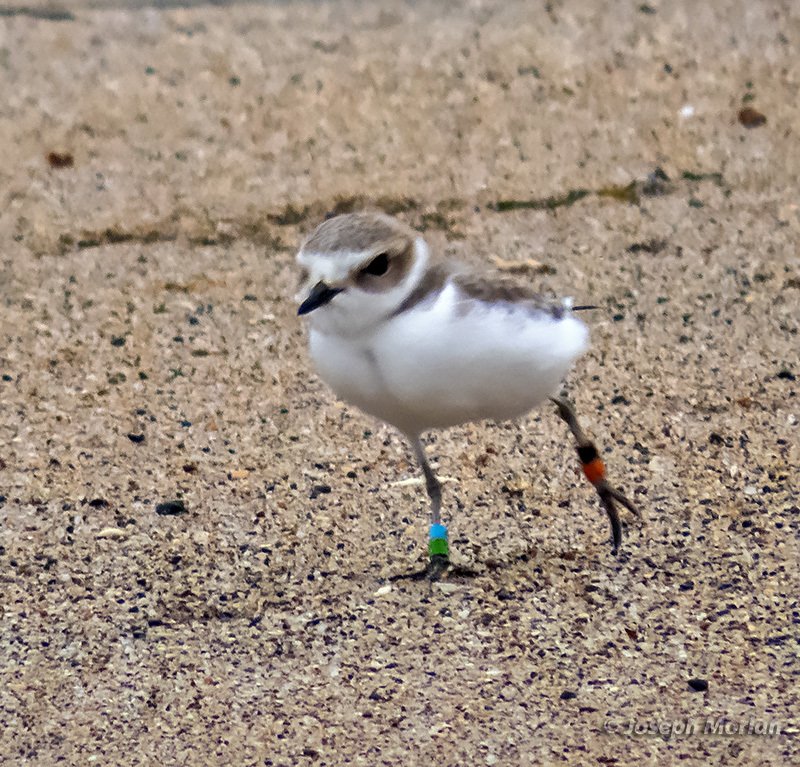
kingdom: Animalia
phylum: Chordata
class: Aves
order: Charadriiformes
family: Charadriidae
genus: Anarhynchus
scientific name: Anarhynchus
